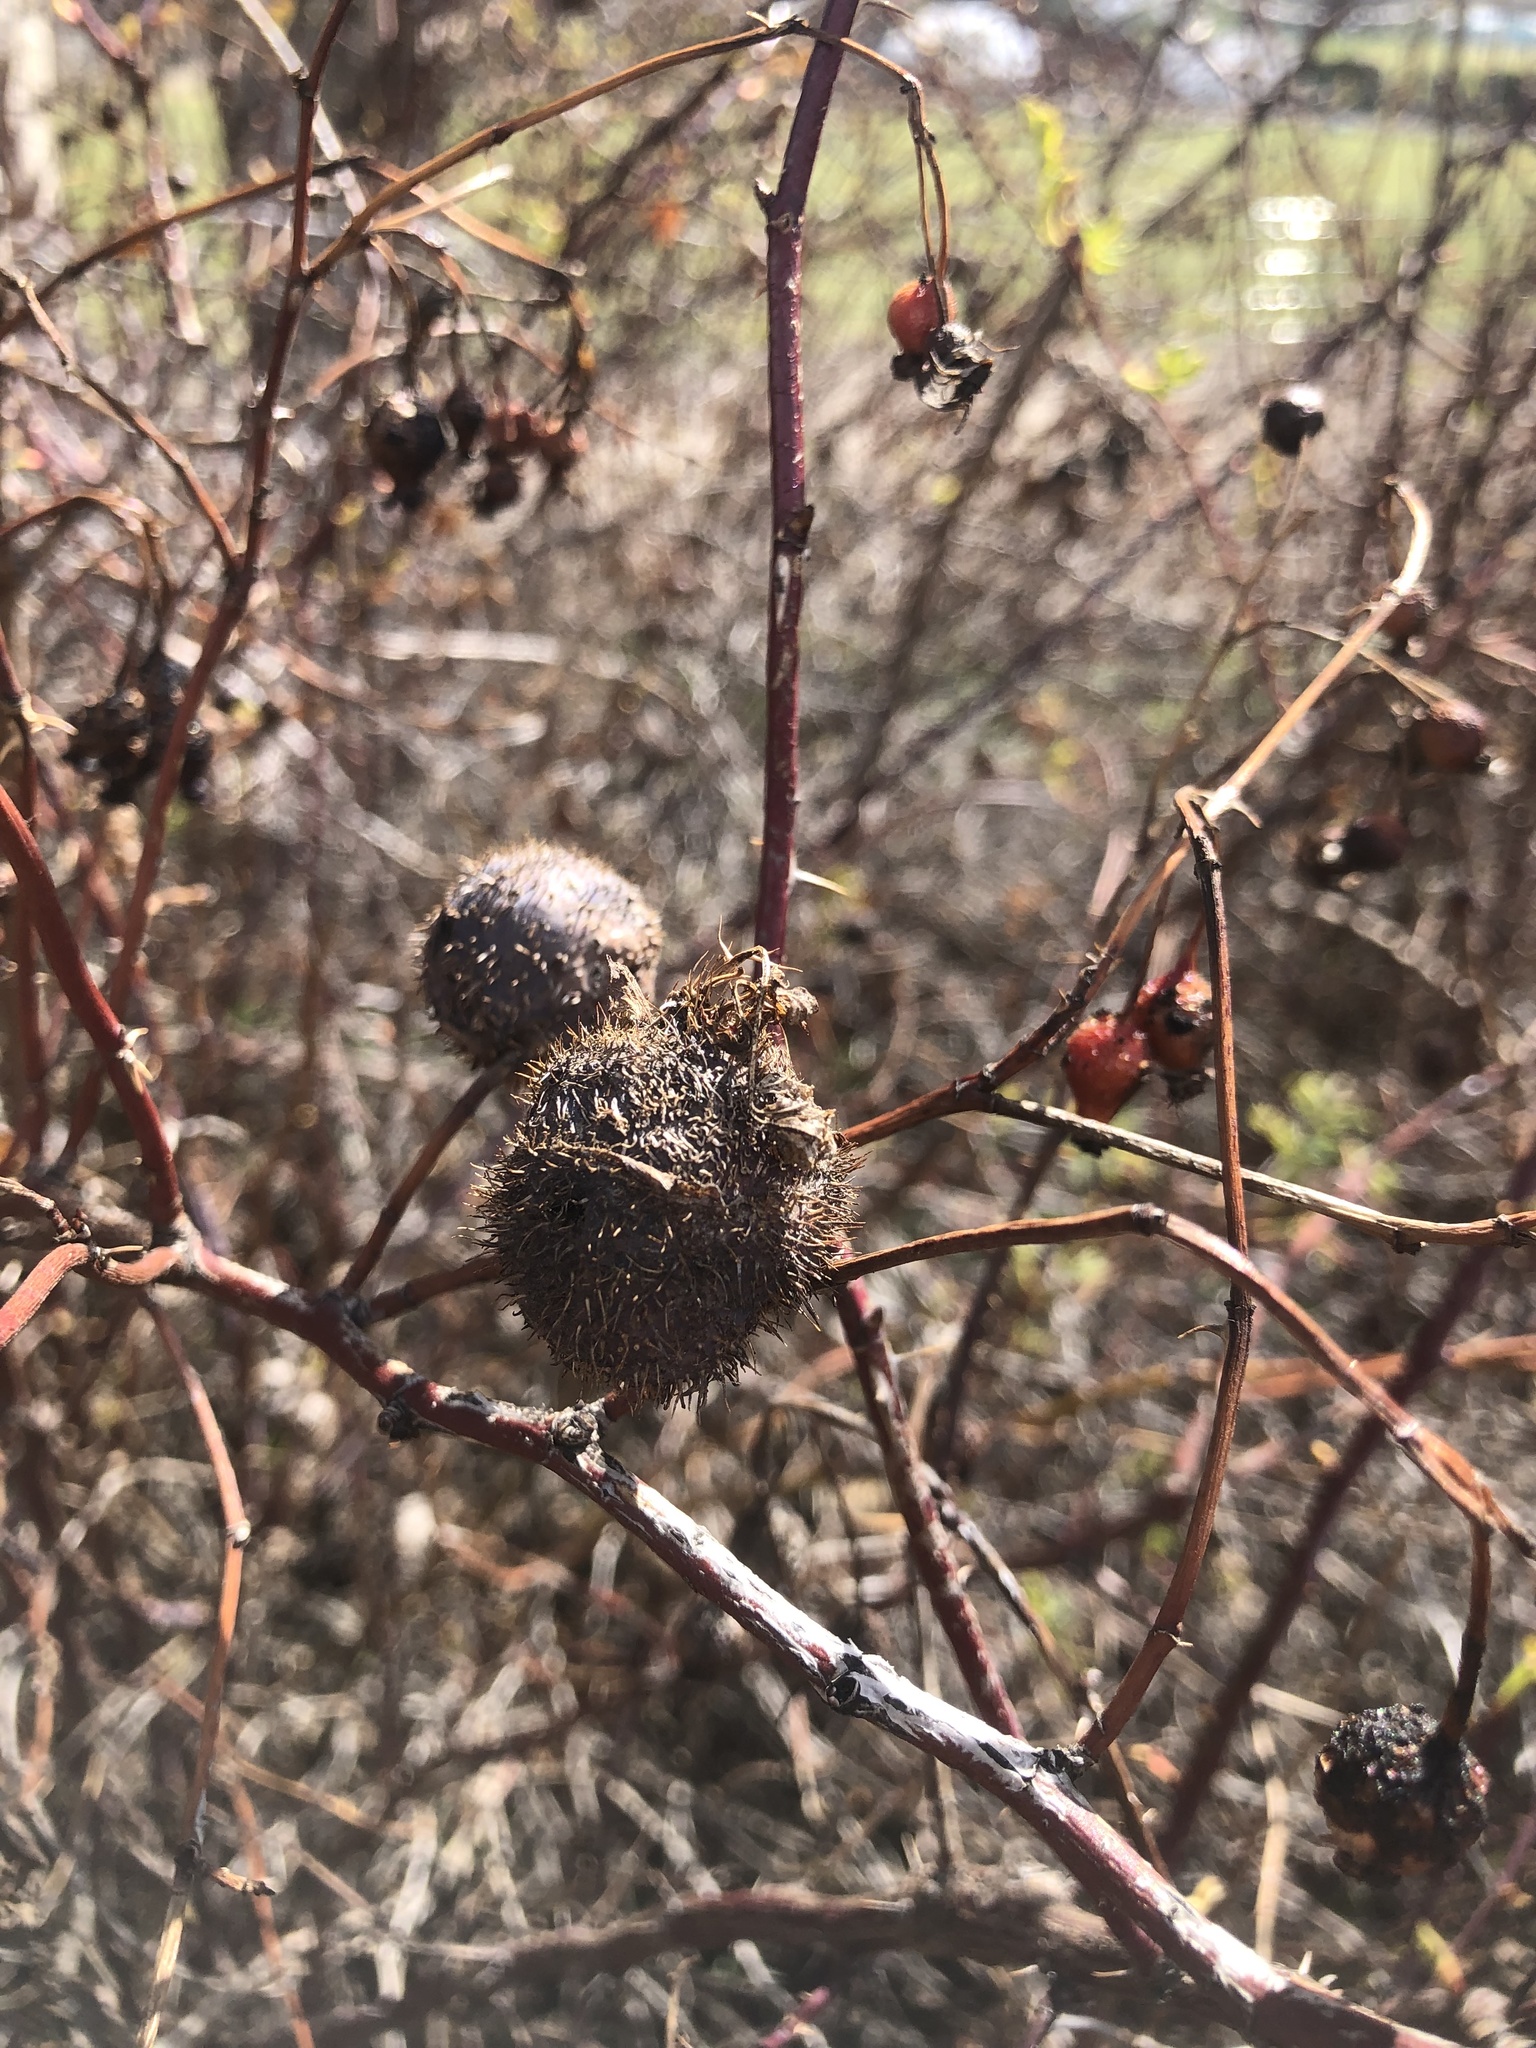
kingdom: Animalia
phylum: Arthropoda
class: Insecta
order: Hymenoptera
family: Cynipidae
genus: Diplolepis
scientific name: Diplolepis spinosa
